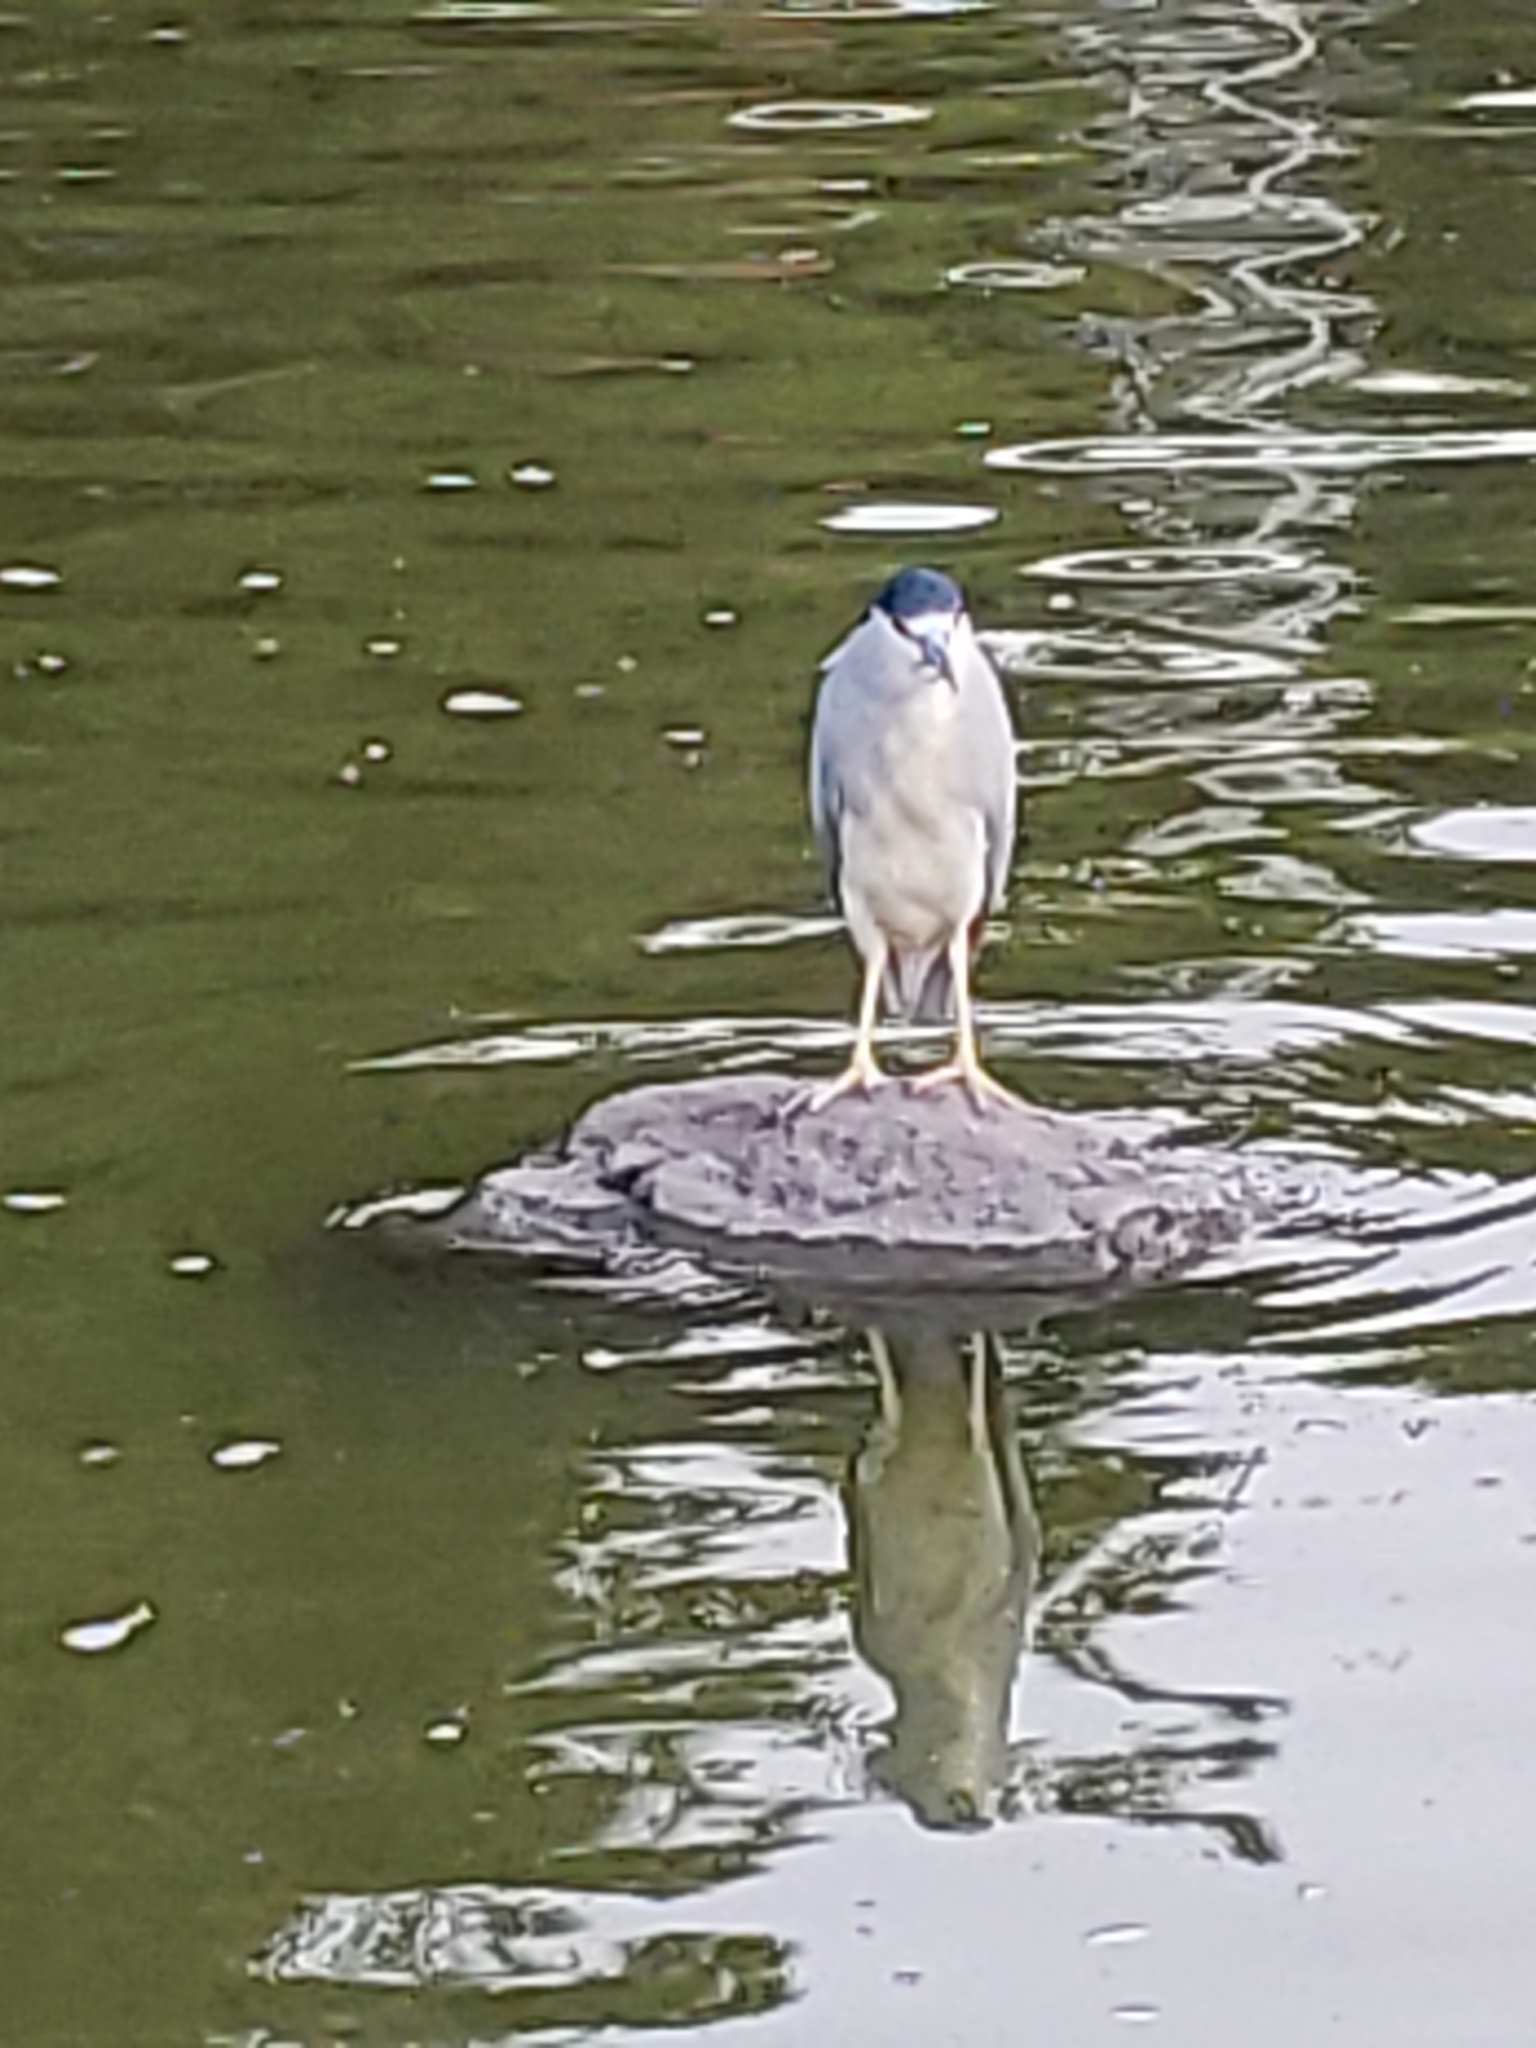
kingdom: Animalia
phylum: Chordata
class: Aves
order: Pelecaniformes
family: Ardeidae
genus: Nycticorax
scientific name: Nycticorax nycticorax
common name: Black-crowned night heron
